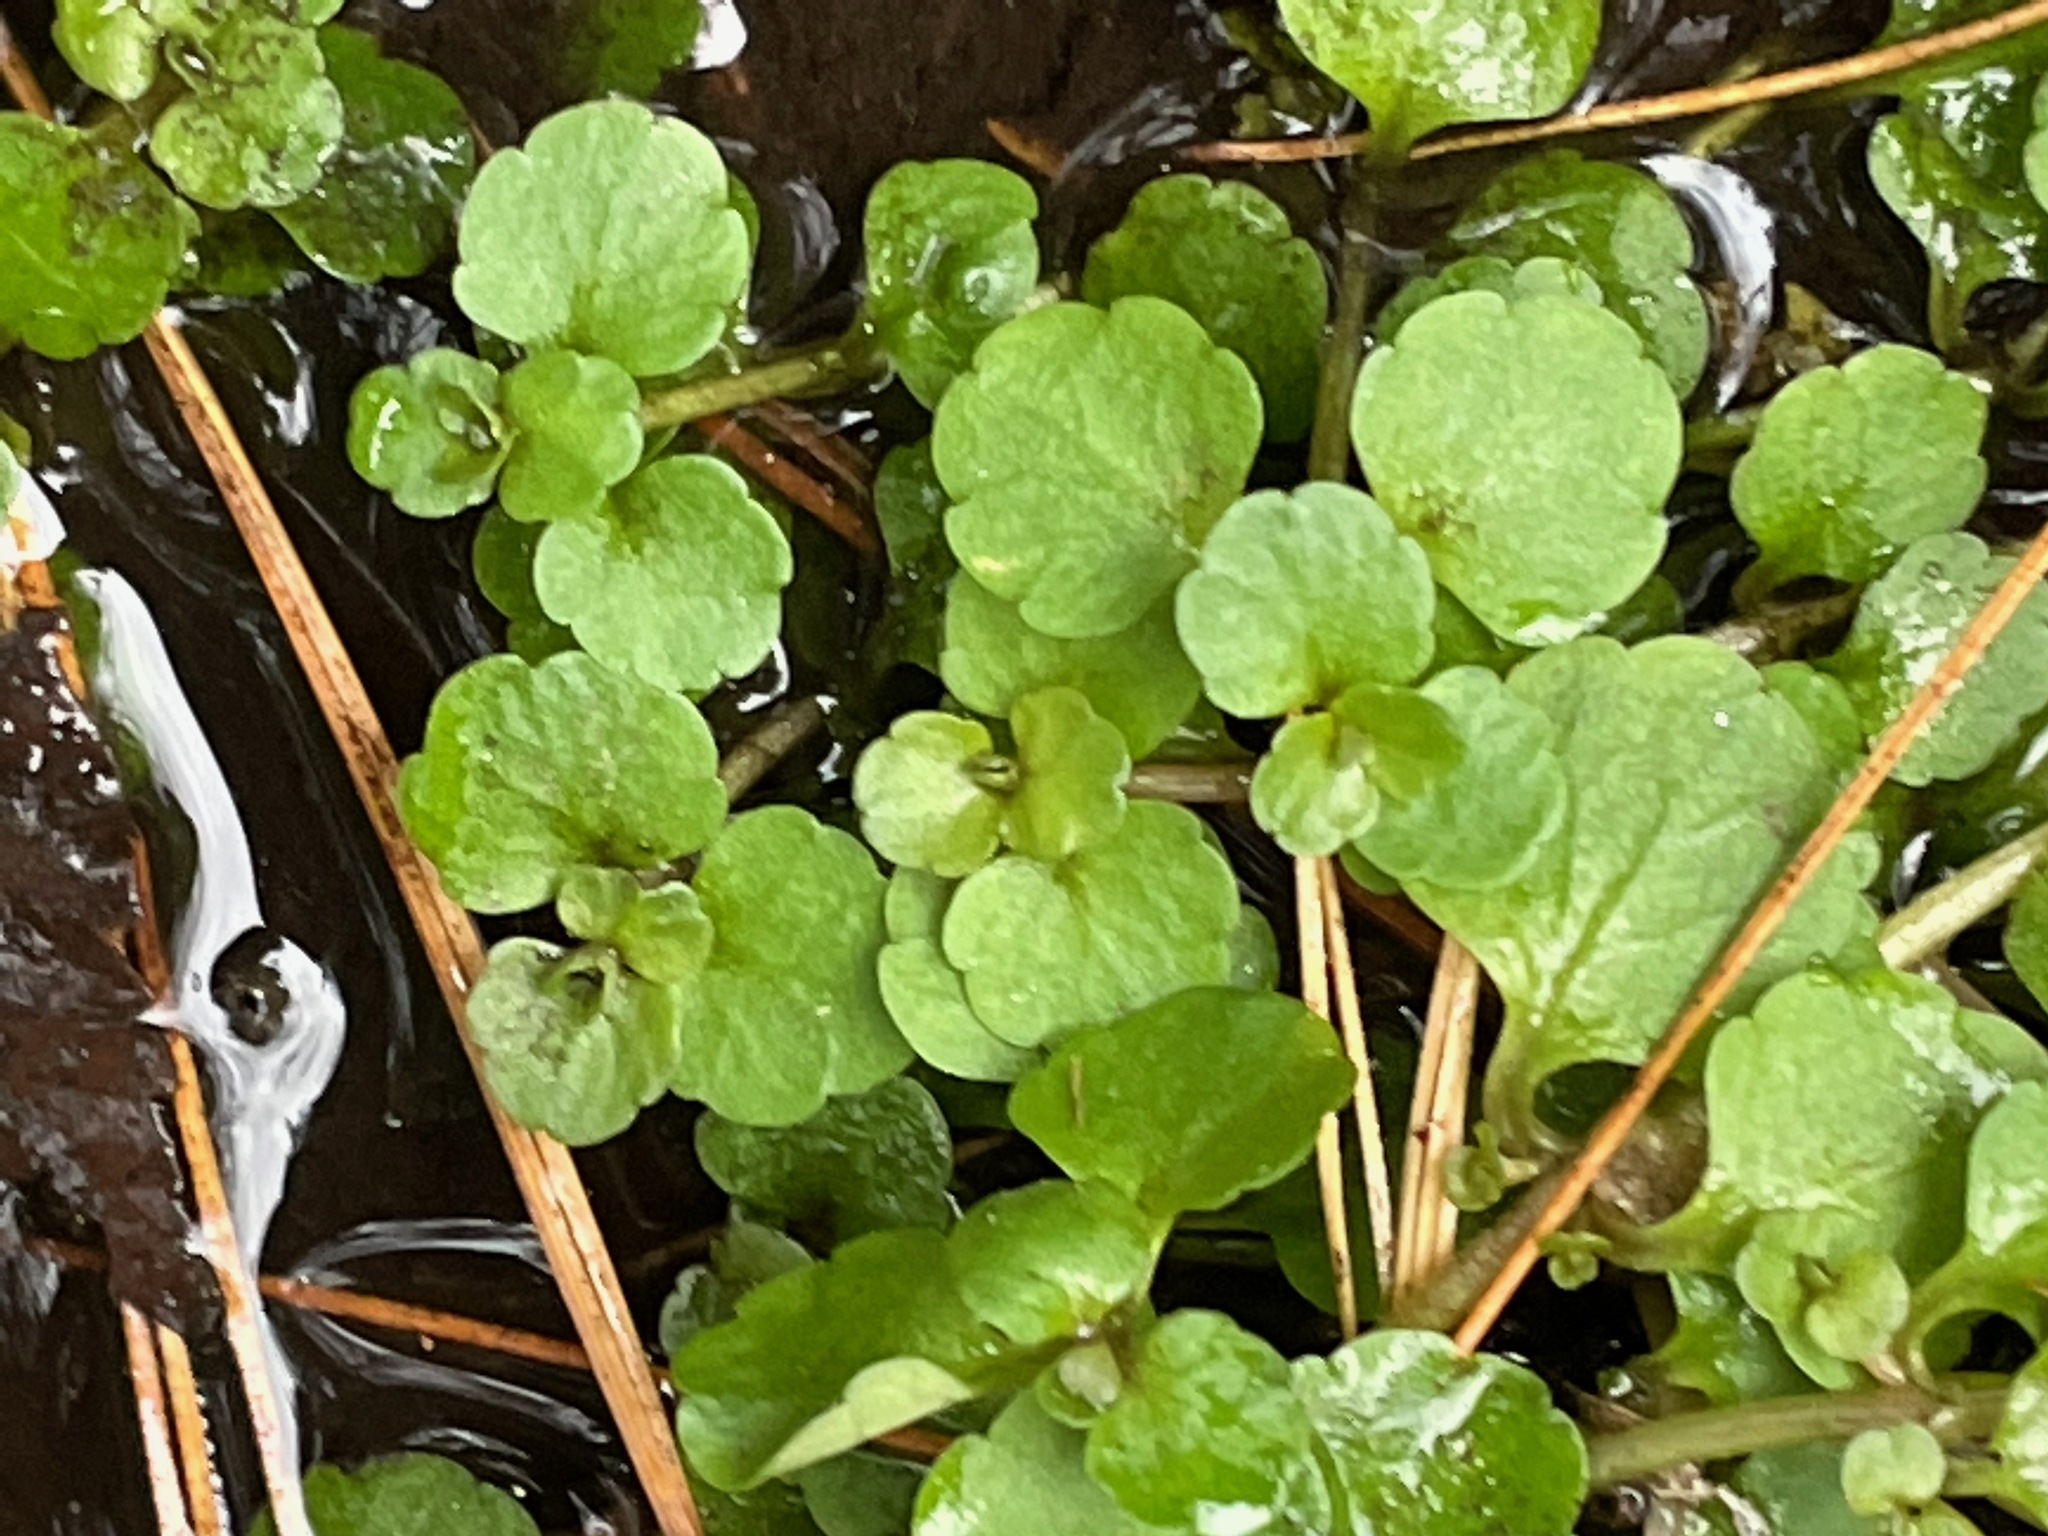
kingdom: Plantae
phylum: Tracheophyta
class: Magnoliopsida
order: Saxifragales
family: Saxifragaceae
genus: Chrysosplenium
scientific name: Chrysosplenium americanum
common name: American golden-saxifrage
